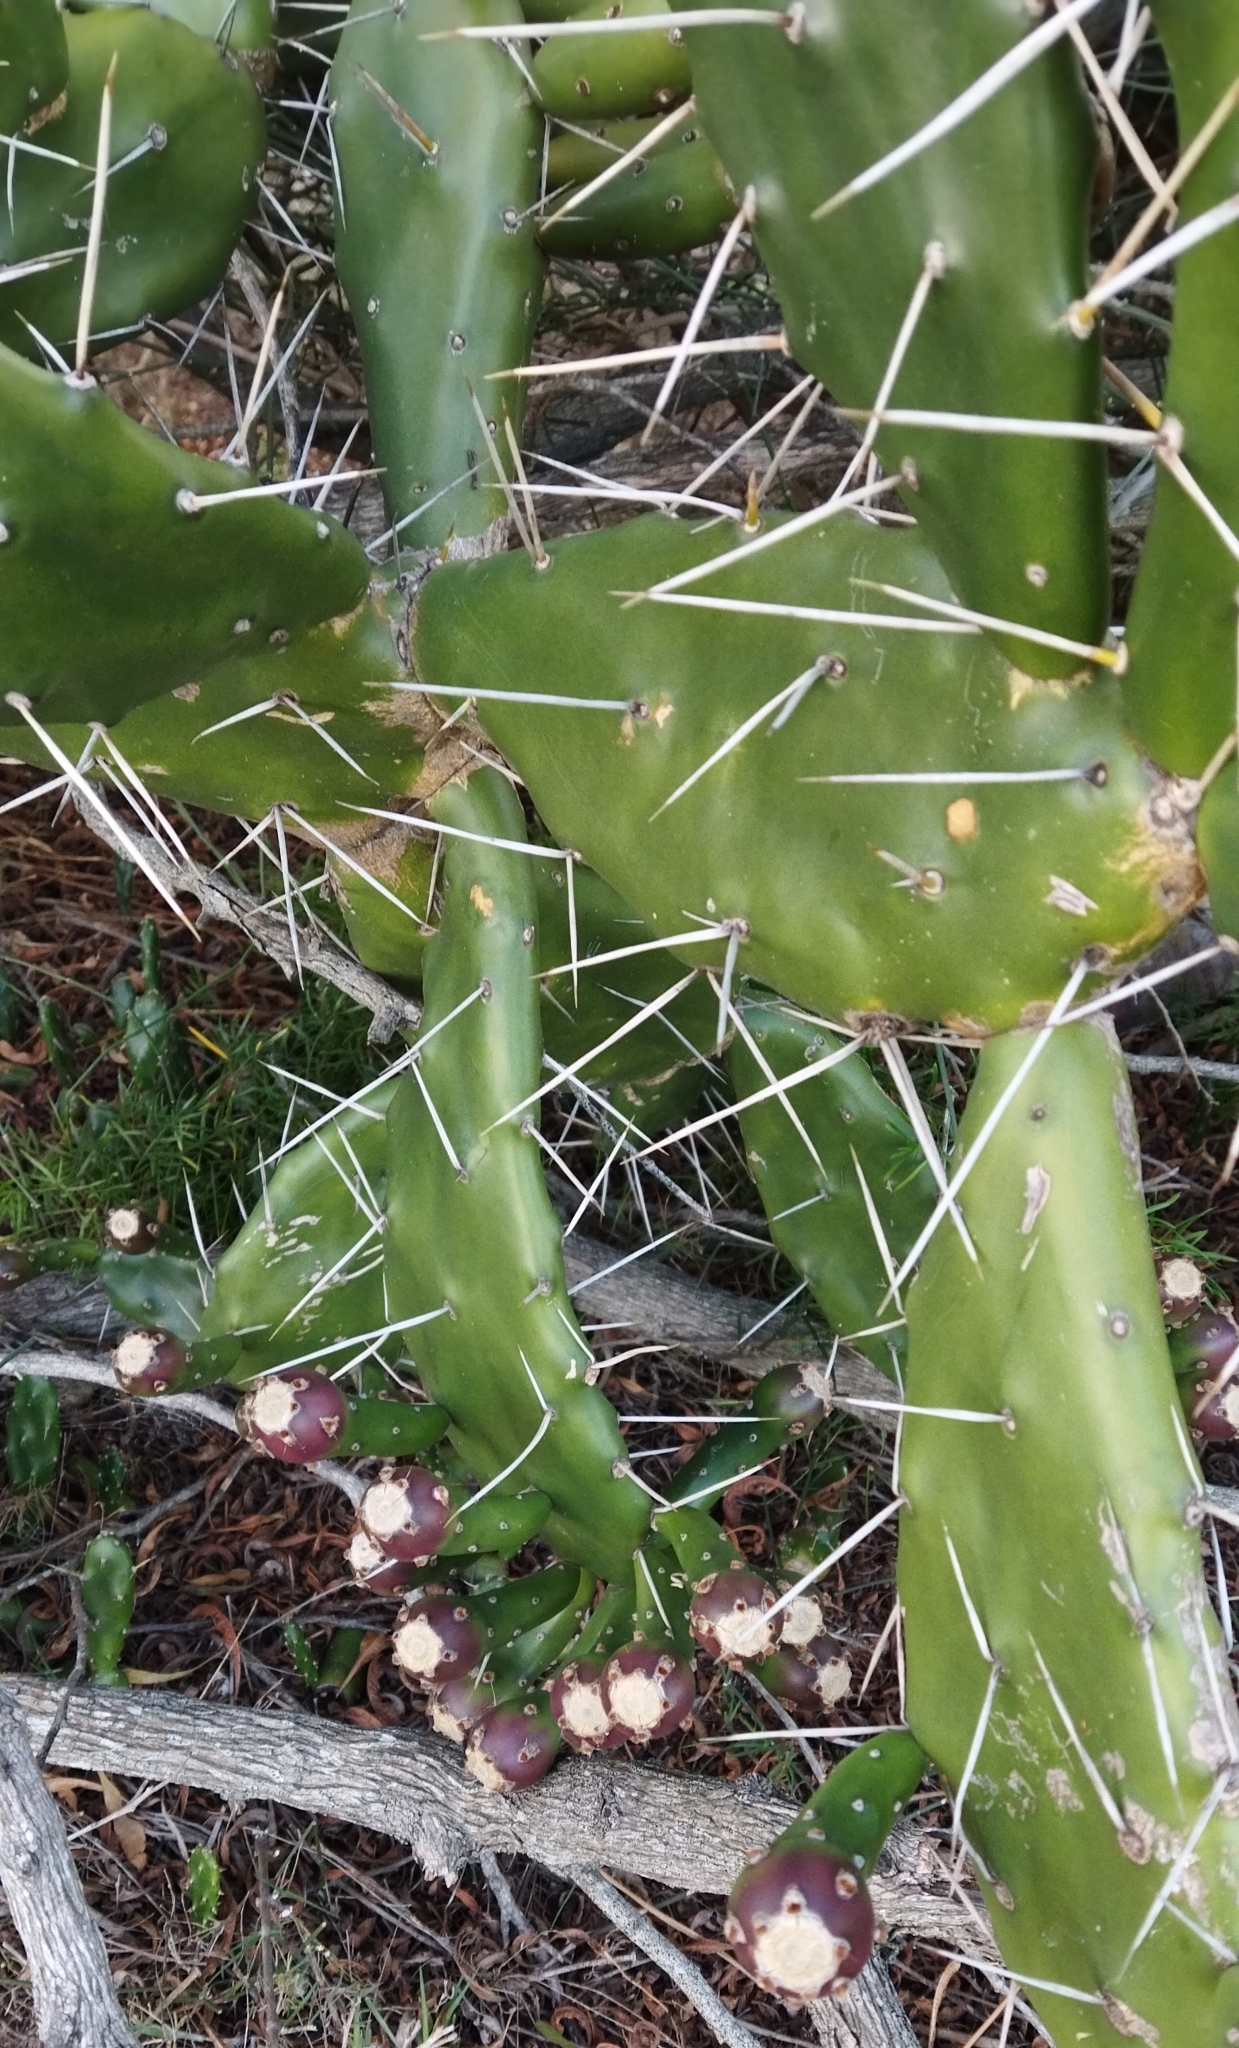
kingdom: Plantae
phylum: Tracheophyta
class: Magnoliopsida
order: Caryophyllales
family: Cactaceae
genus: Opuntia
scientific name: Opuntia arechavaletae
